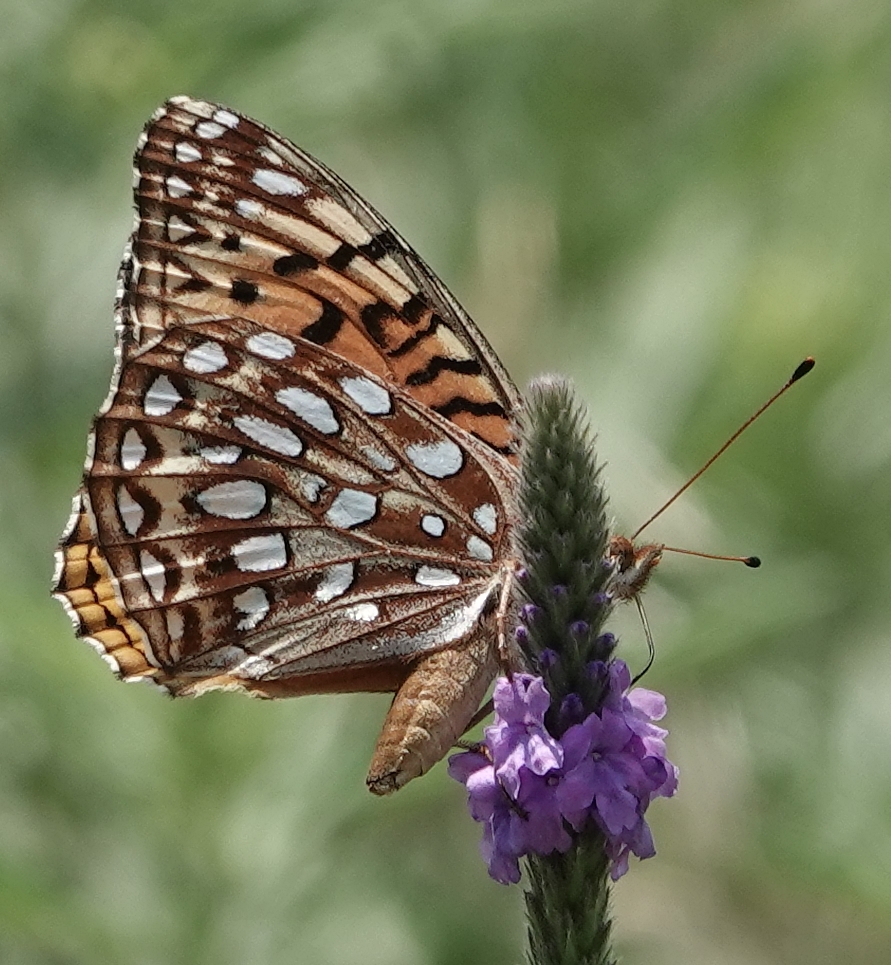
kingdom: Animalia
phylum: Arthropoda
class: Insecta
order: Lepidoptera
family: Nymphalidae
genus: Speyeria
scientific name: Speyeria aphrodite
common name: Aphrodite friitllary
